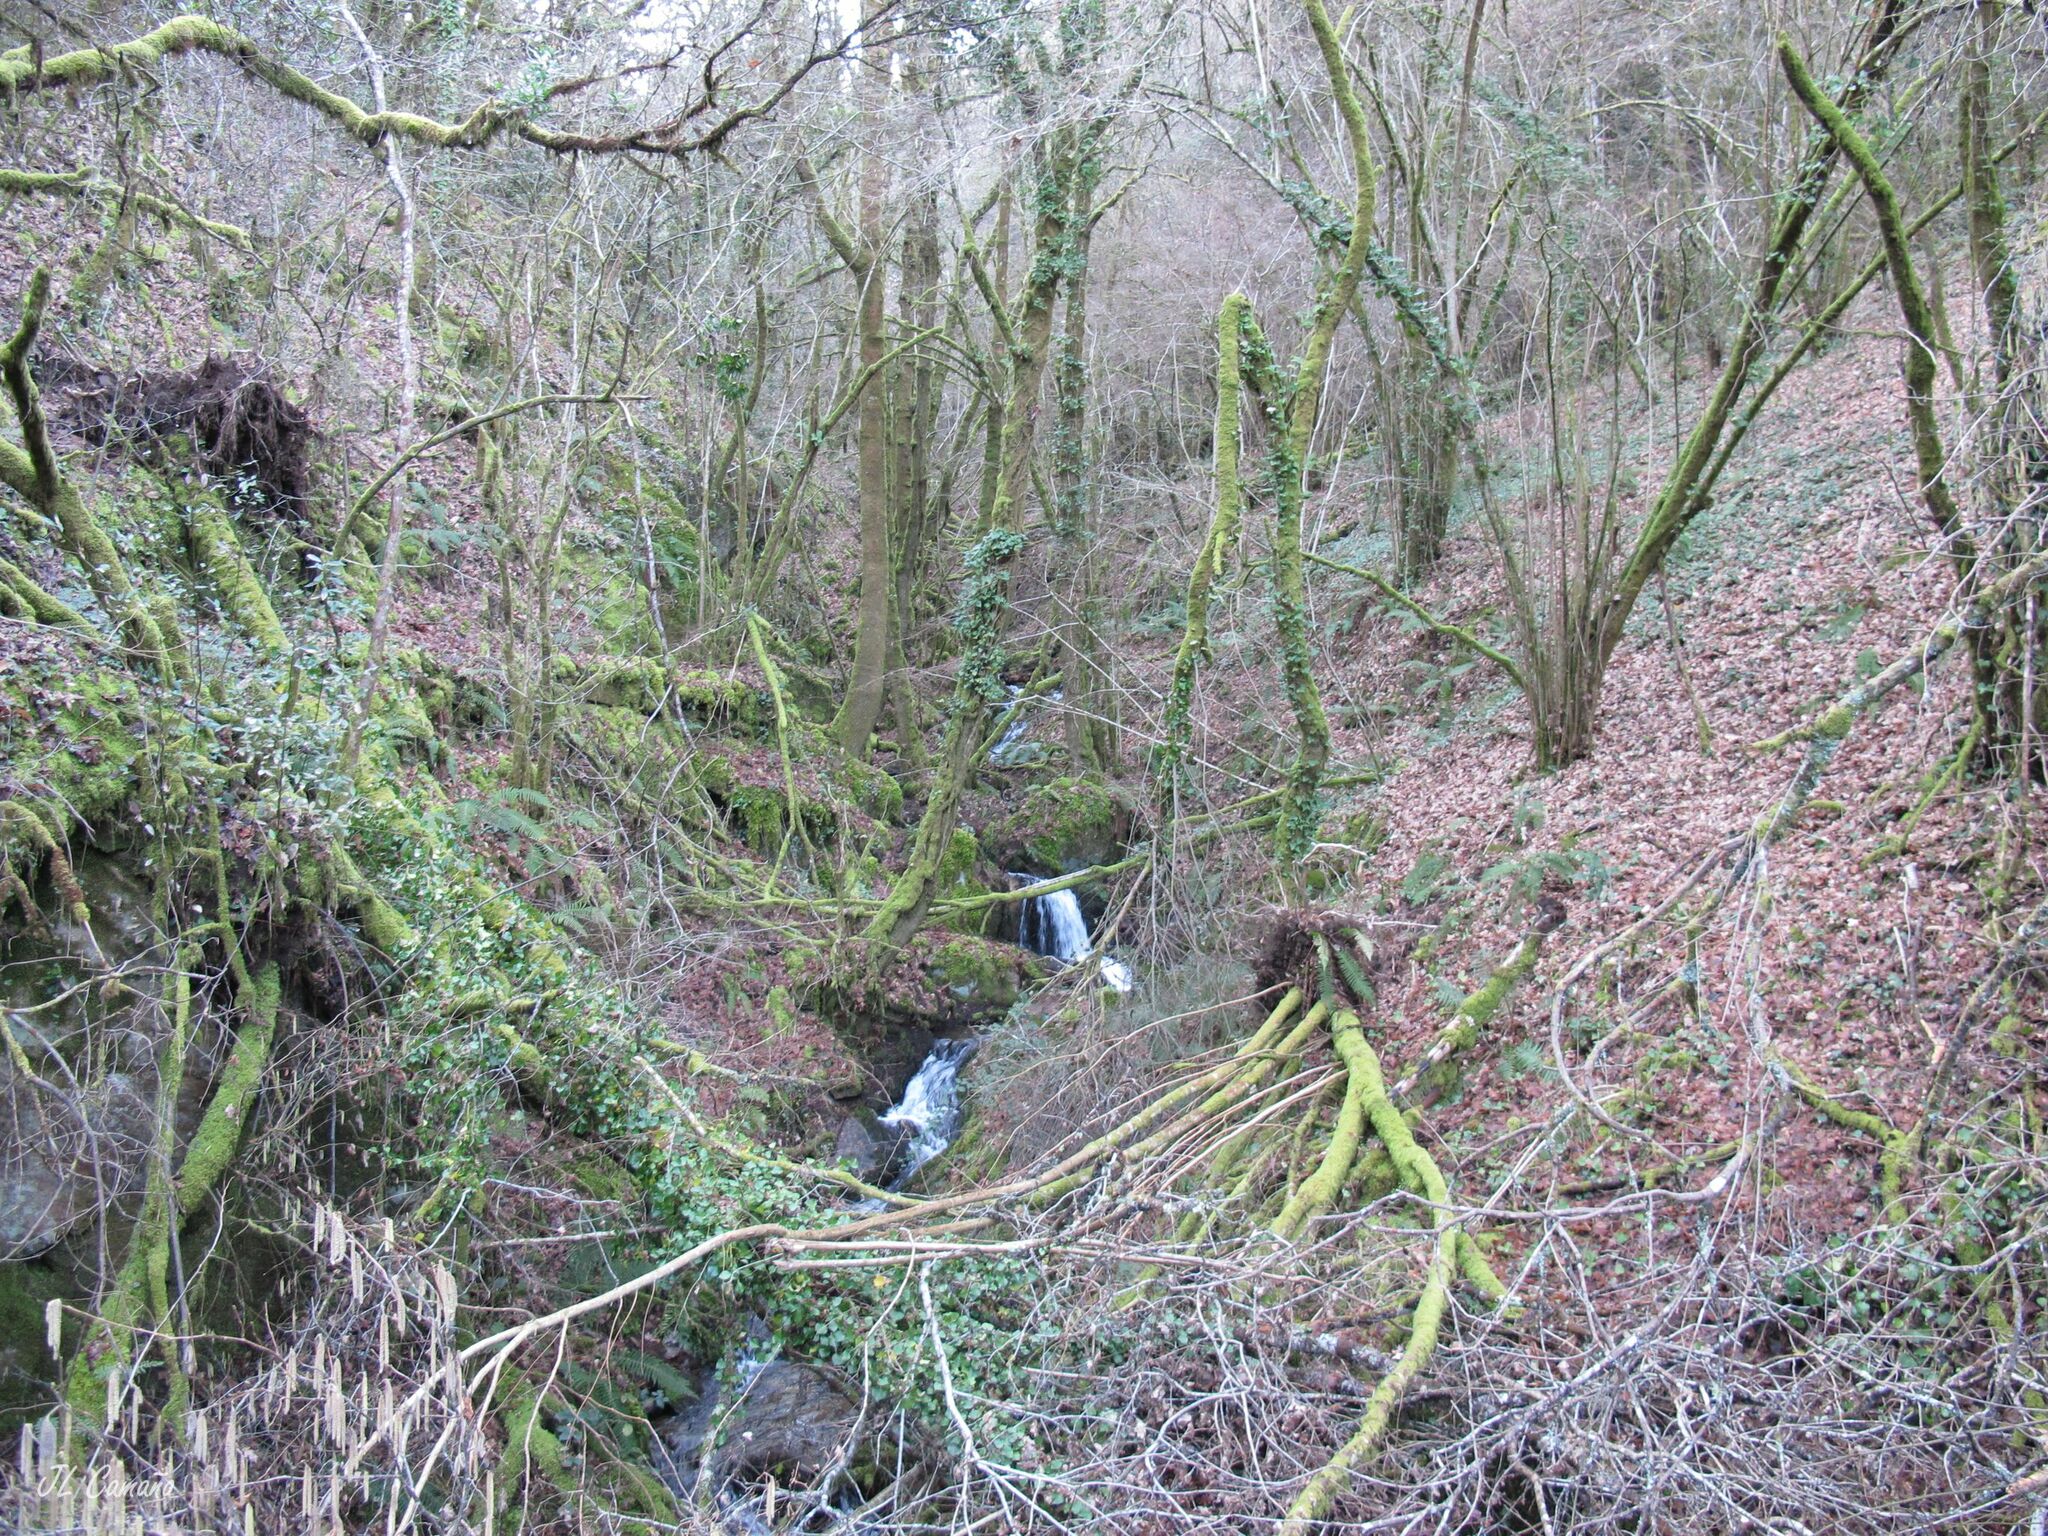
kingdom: Plantae
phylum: Marchantiophyta
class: Jungermanniopsida
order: Jungermanniales
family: Saccogynaceae
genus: Saccogyna
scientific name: Saccogyna viticulosa
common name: Straggling pouchwort
